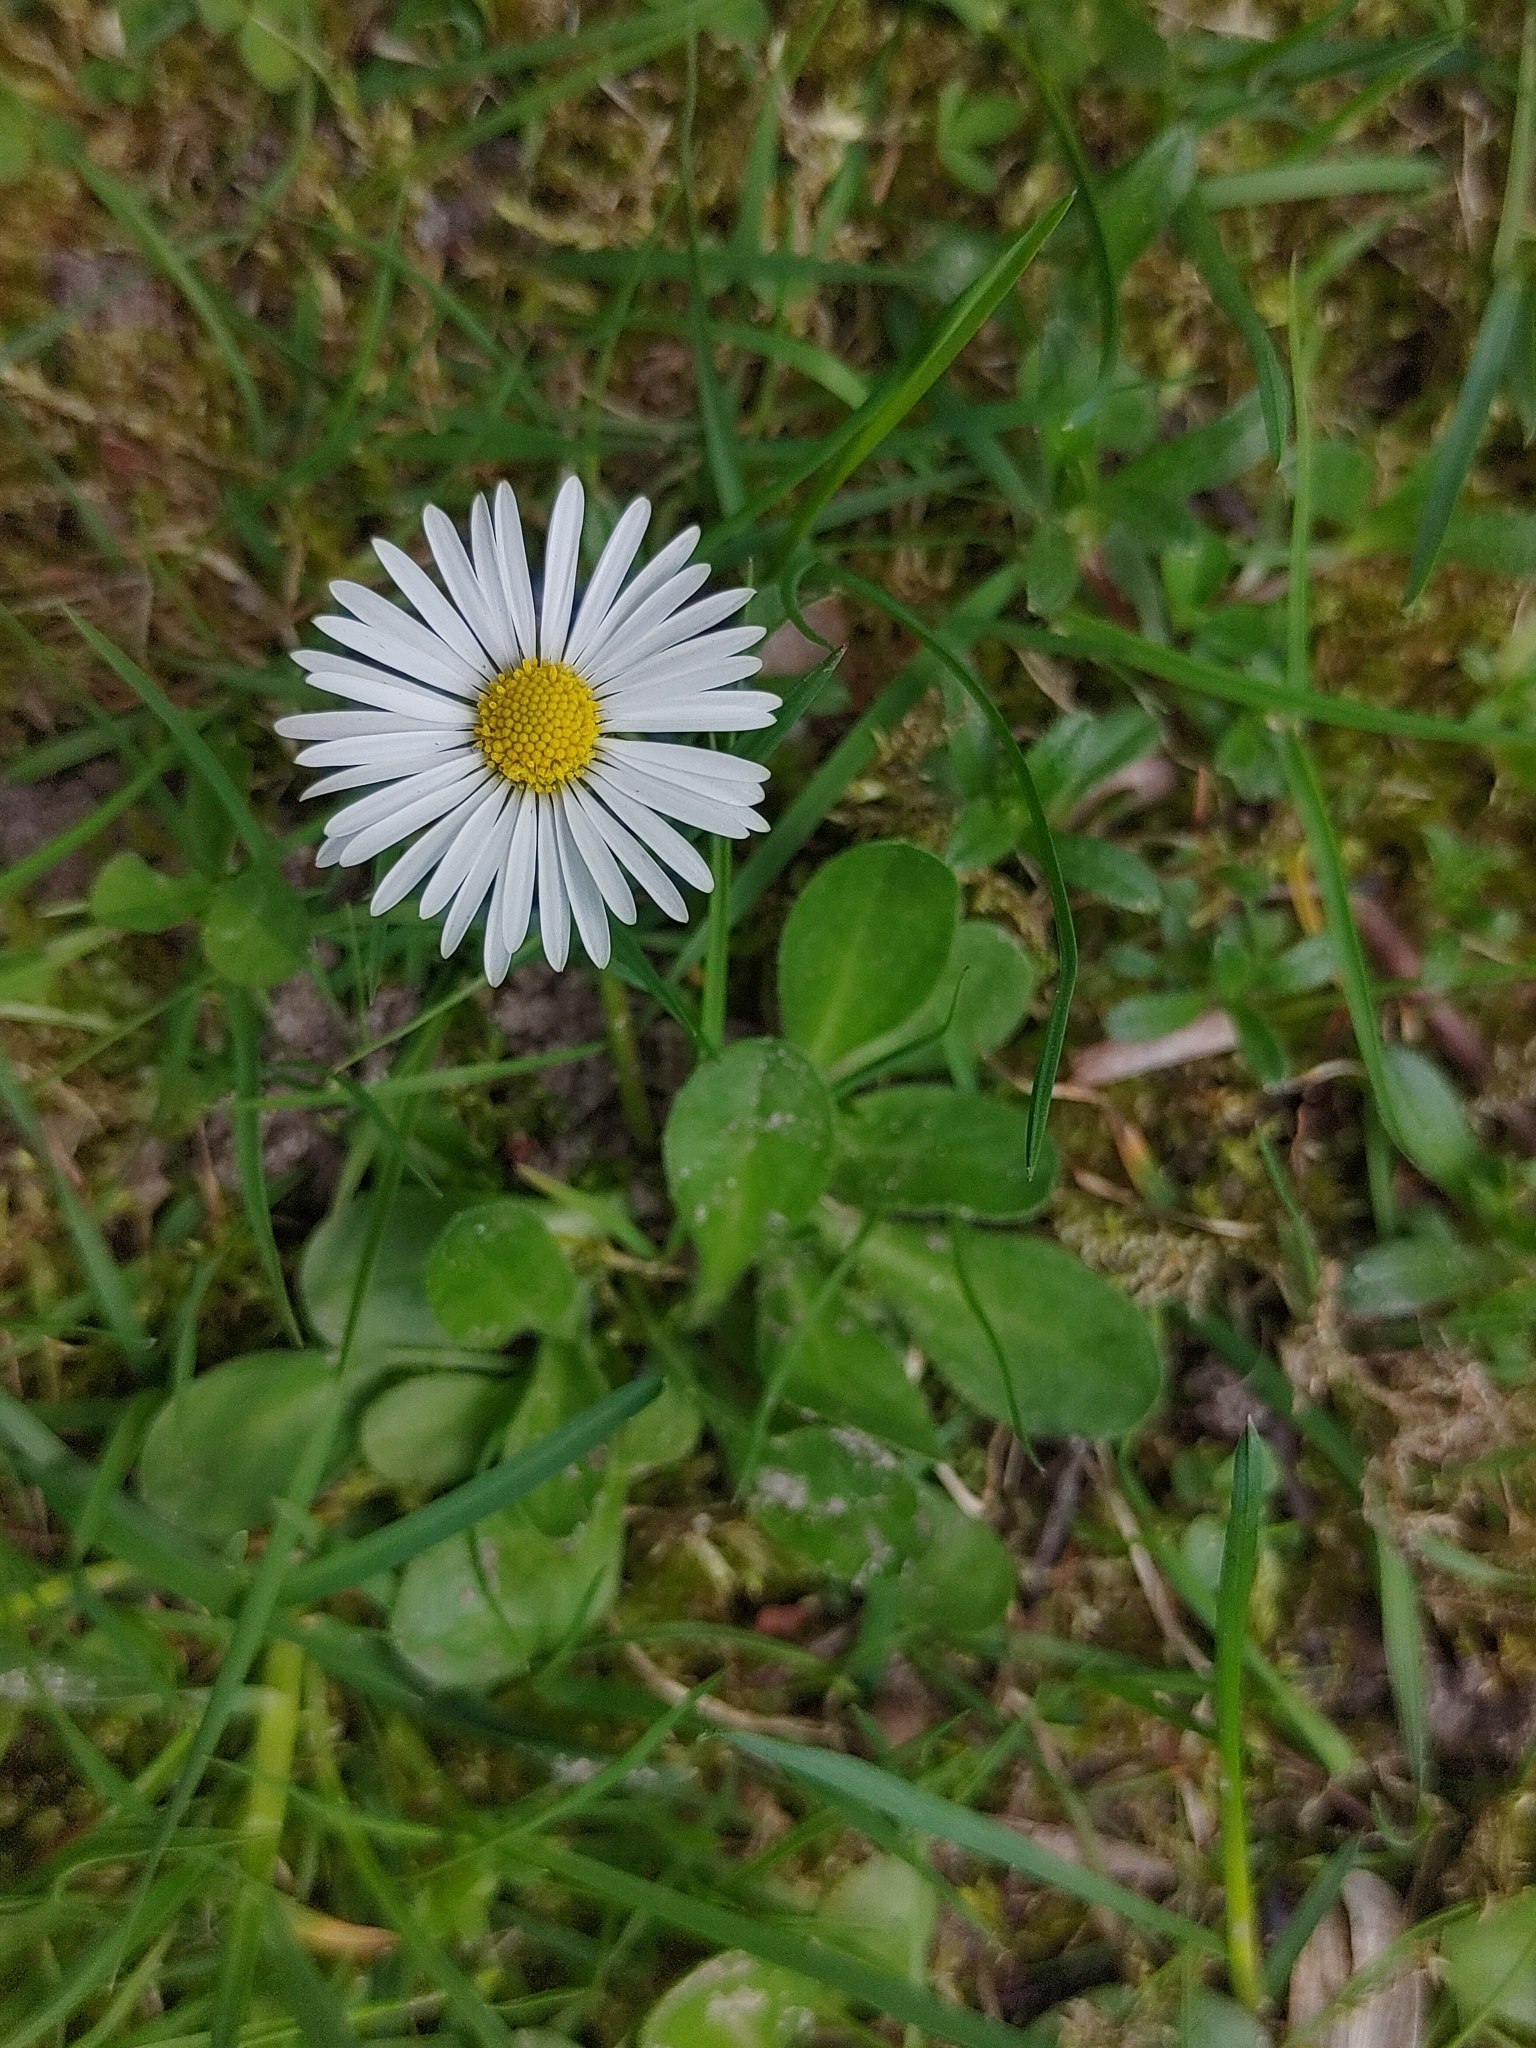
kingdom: Plantae
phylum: Tracheophyta
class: Magnoliopsida
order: Asterales
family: Asteraceae
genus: Bellis
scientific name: Bellis perennis
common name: Lawndaisy
